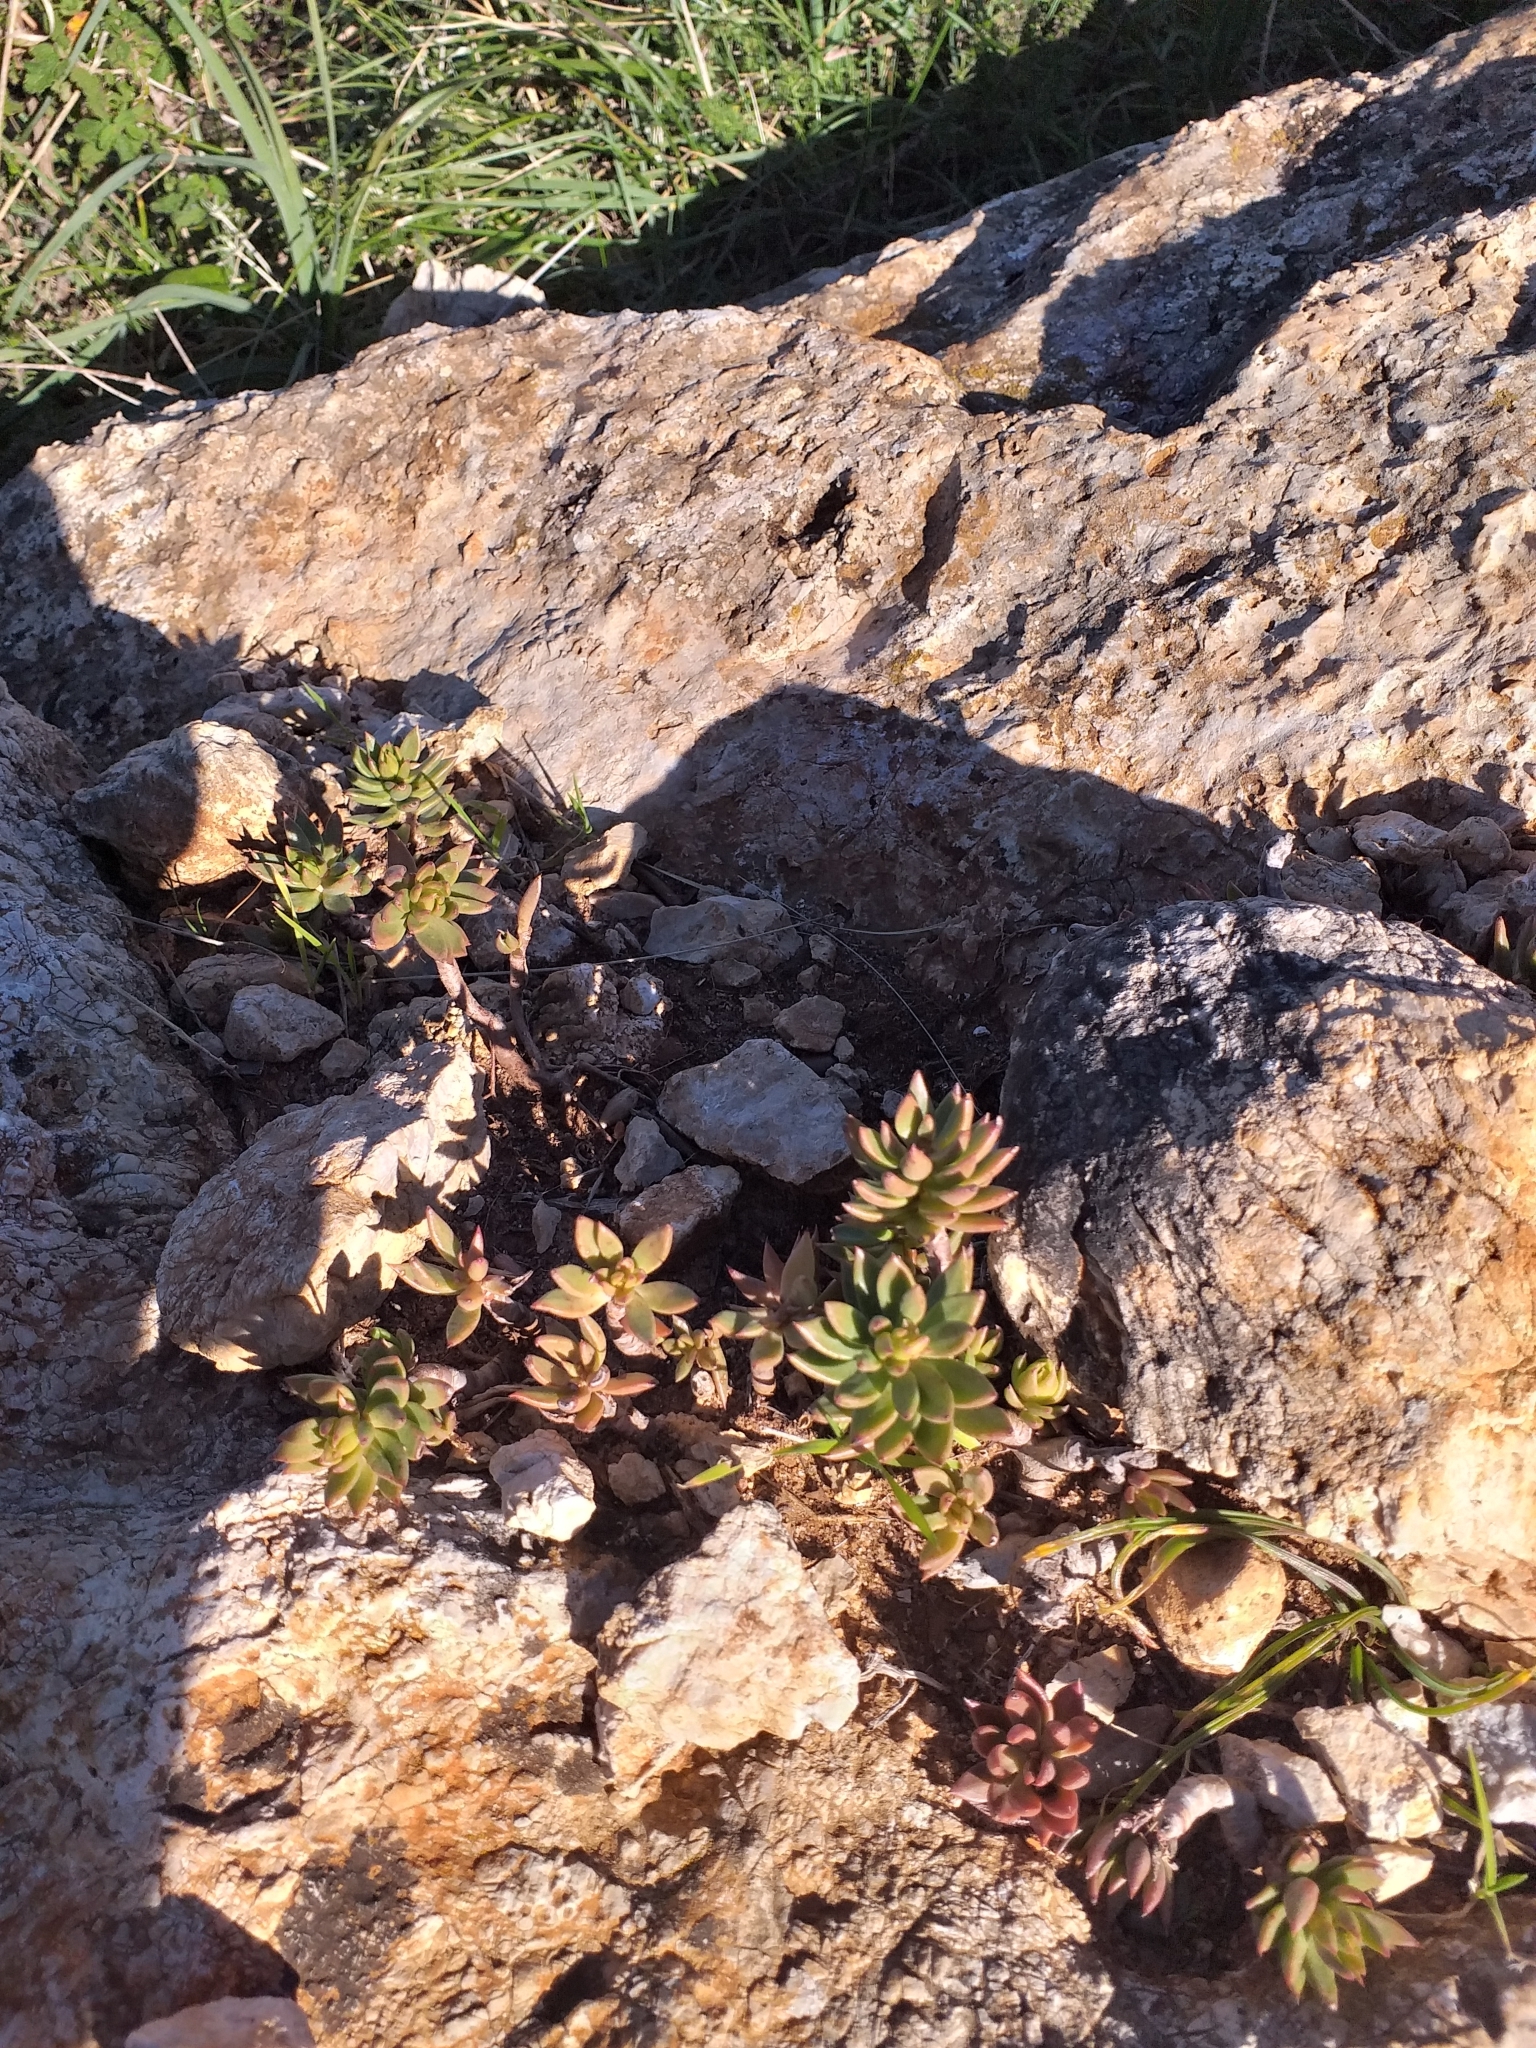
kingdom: Plantae
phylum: Tracheophyta
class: Magnoliopsida
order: Saxifragales
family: Crassulaceae
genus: Petrosedum
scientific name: Petrosedum sediforme
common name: Pale stonecrop
